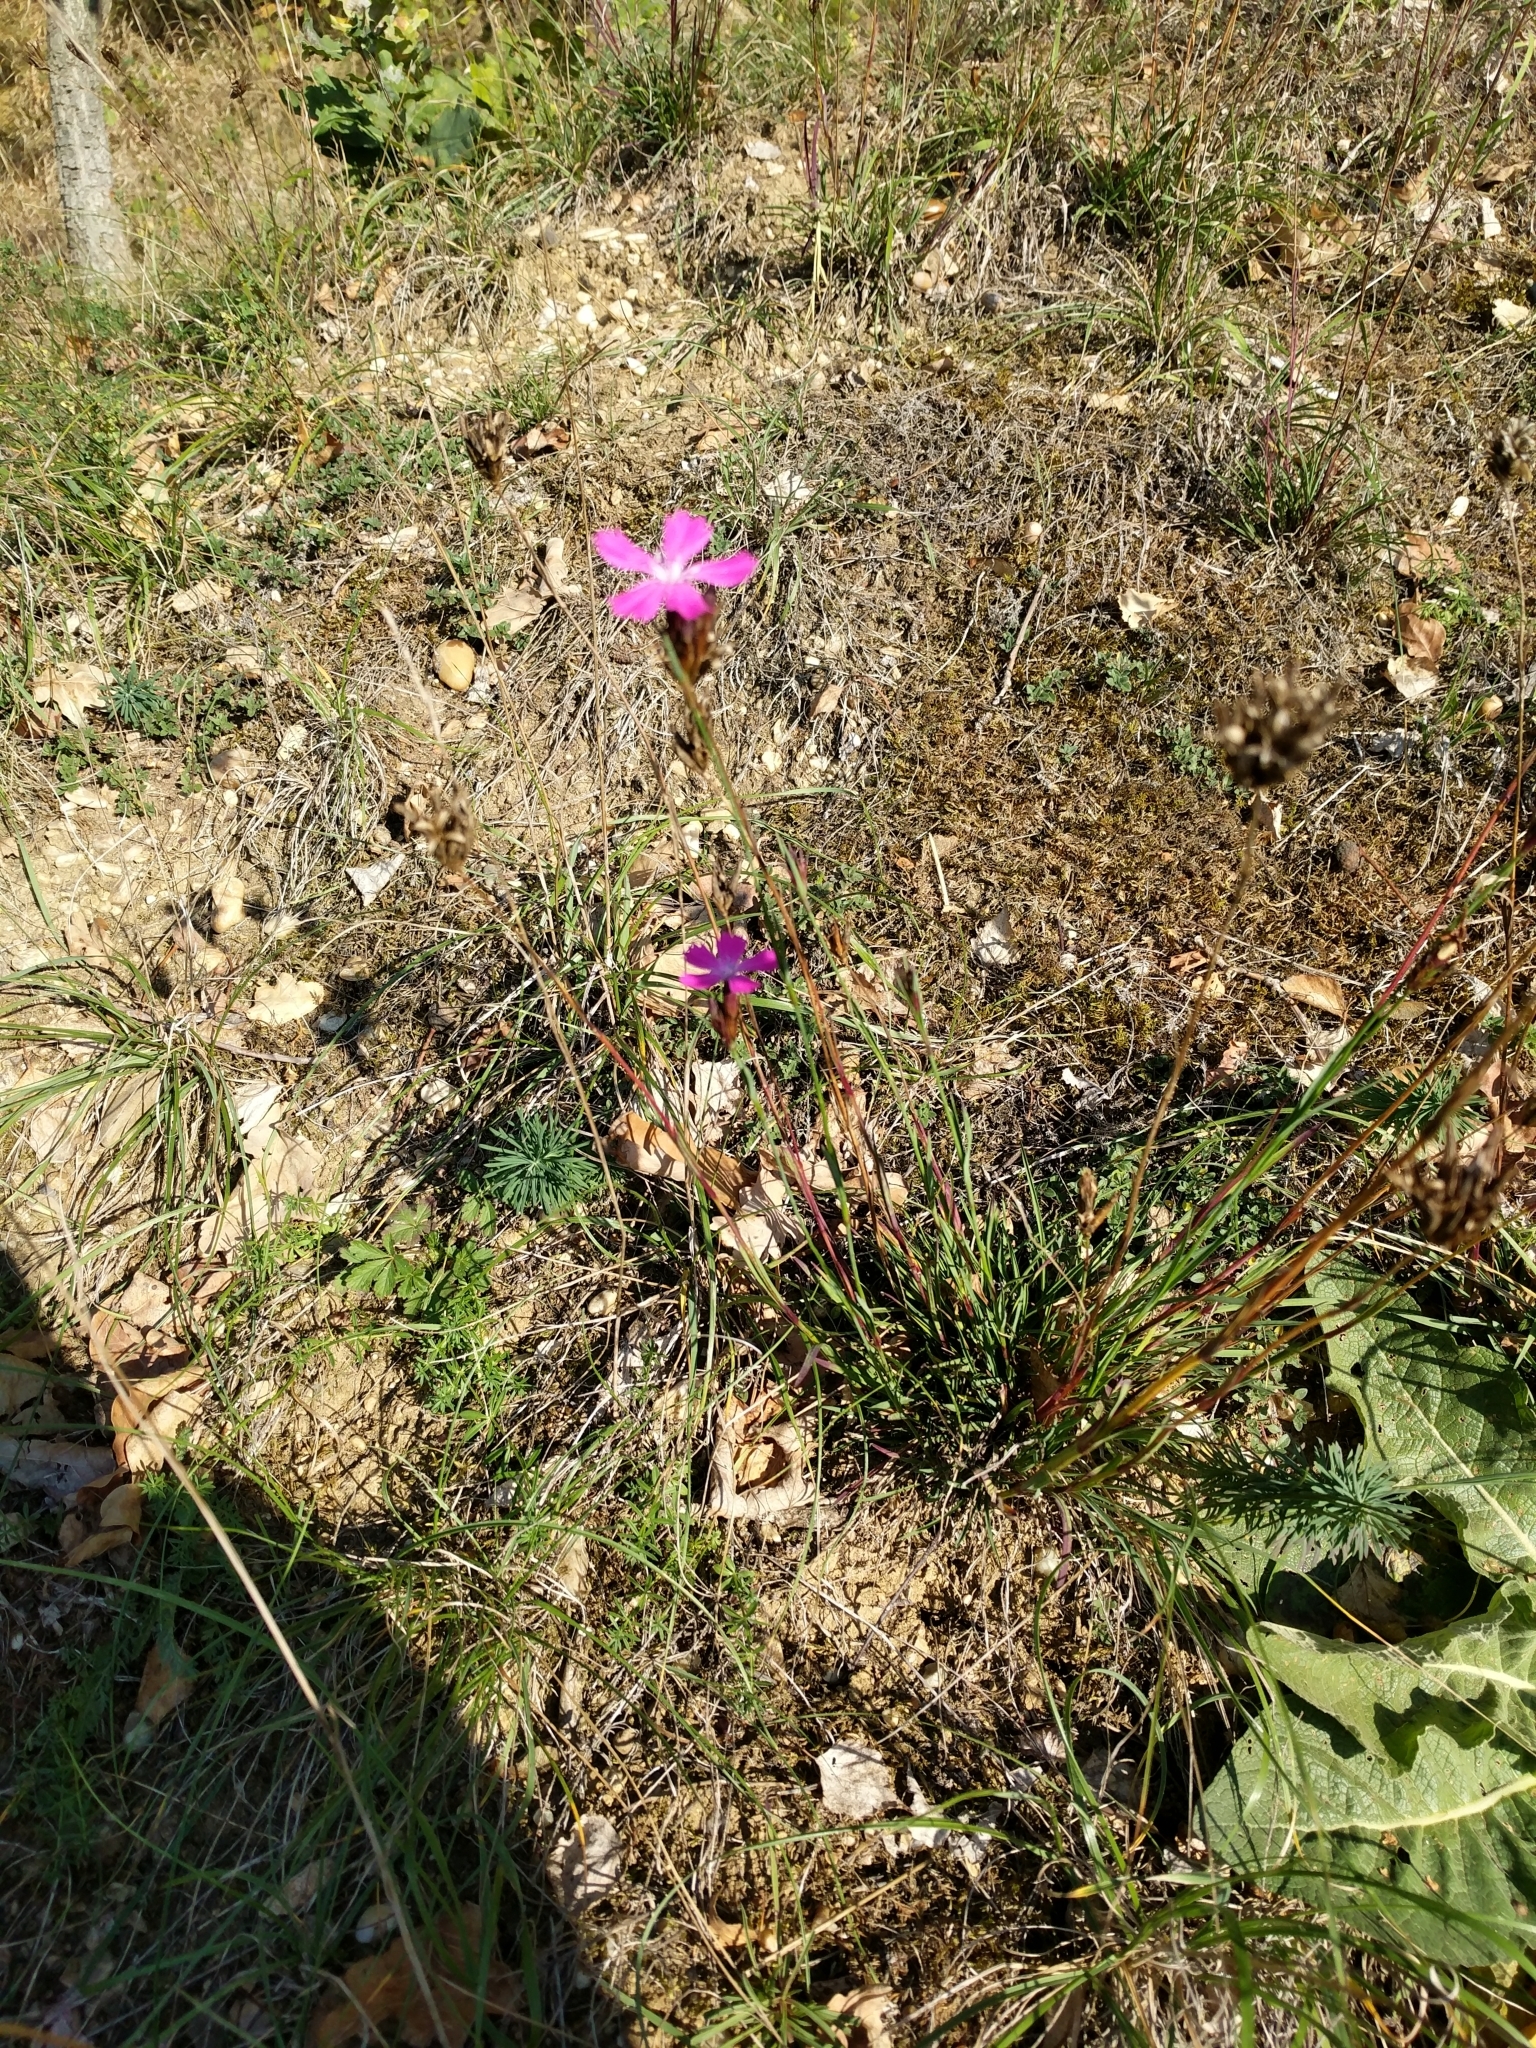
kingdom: Plantae
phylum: Tracheophyta
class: Magnoliopsida
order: Caryophyllales
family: Caryophyllaceae
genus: Dianthus
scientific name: Dianthus carthusianorum
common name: Carthusian pink
